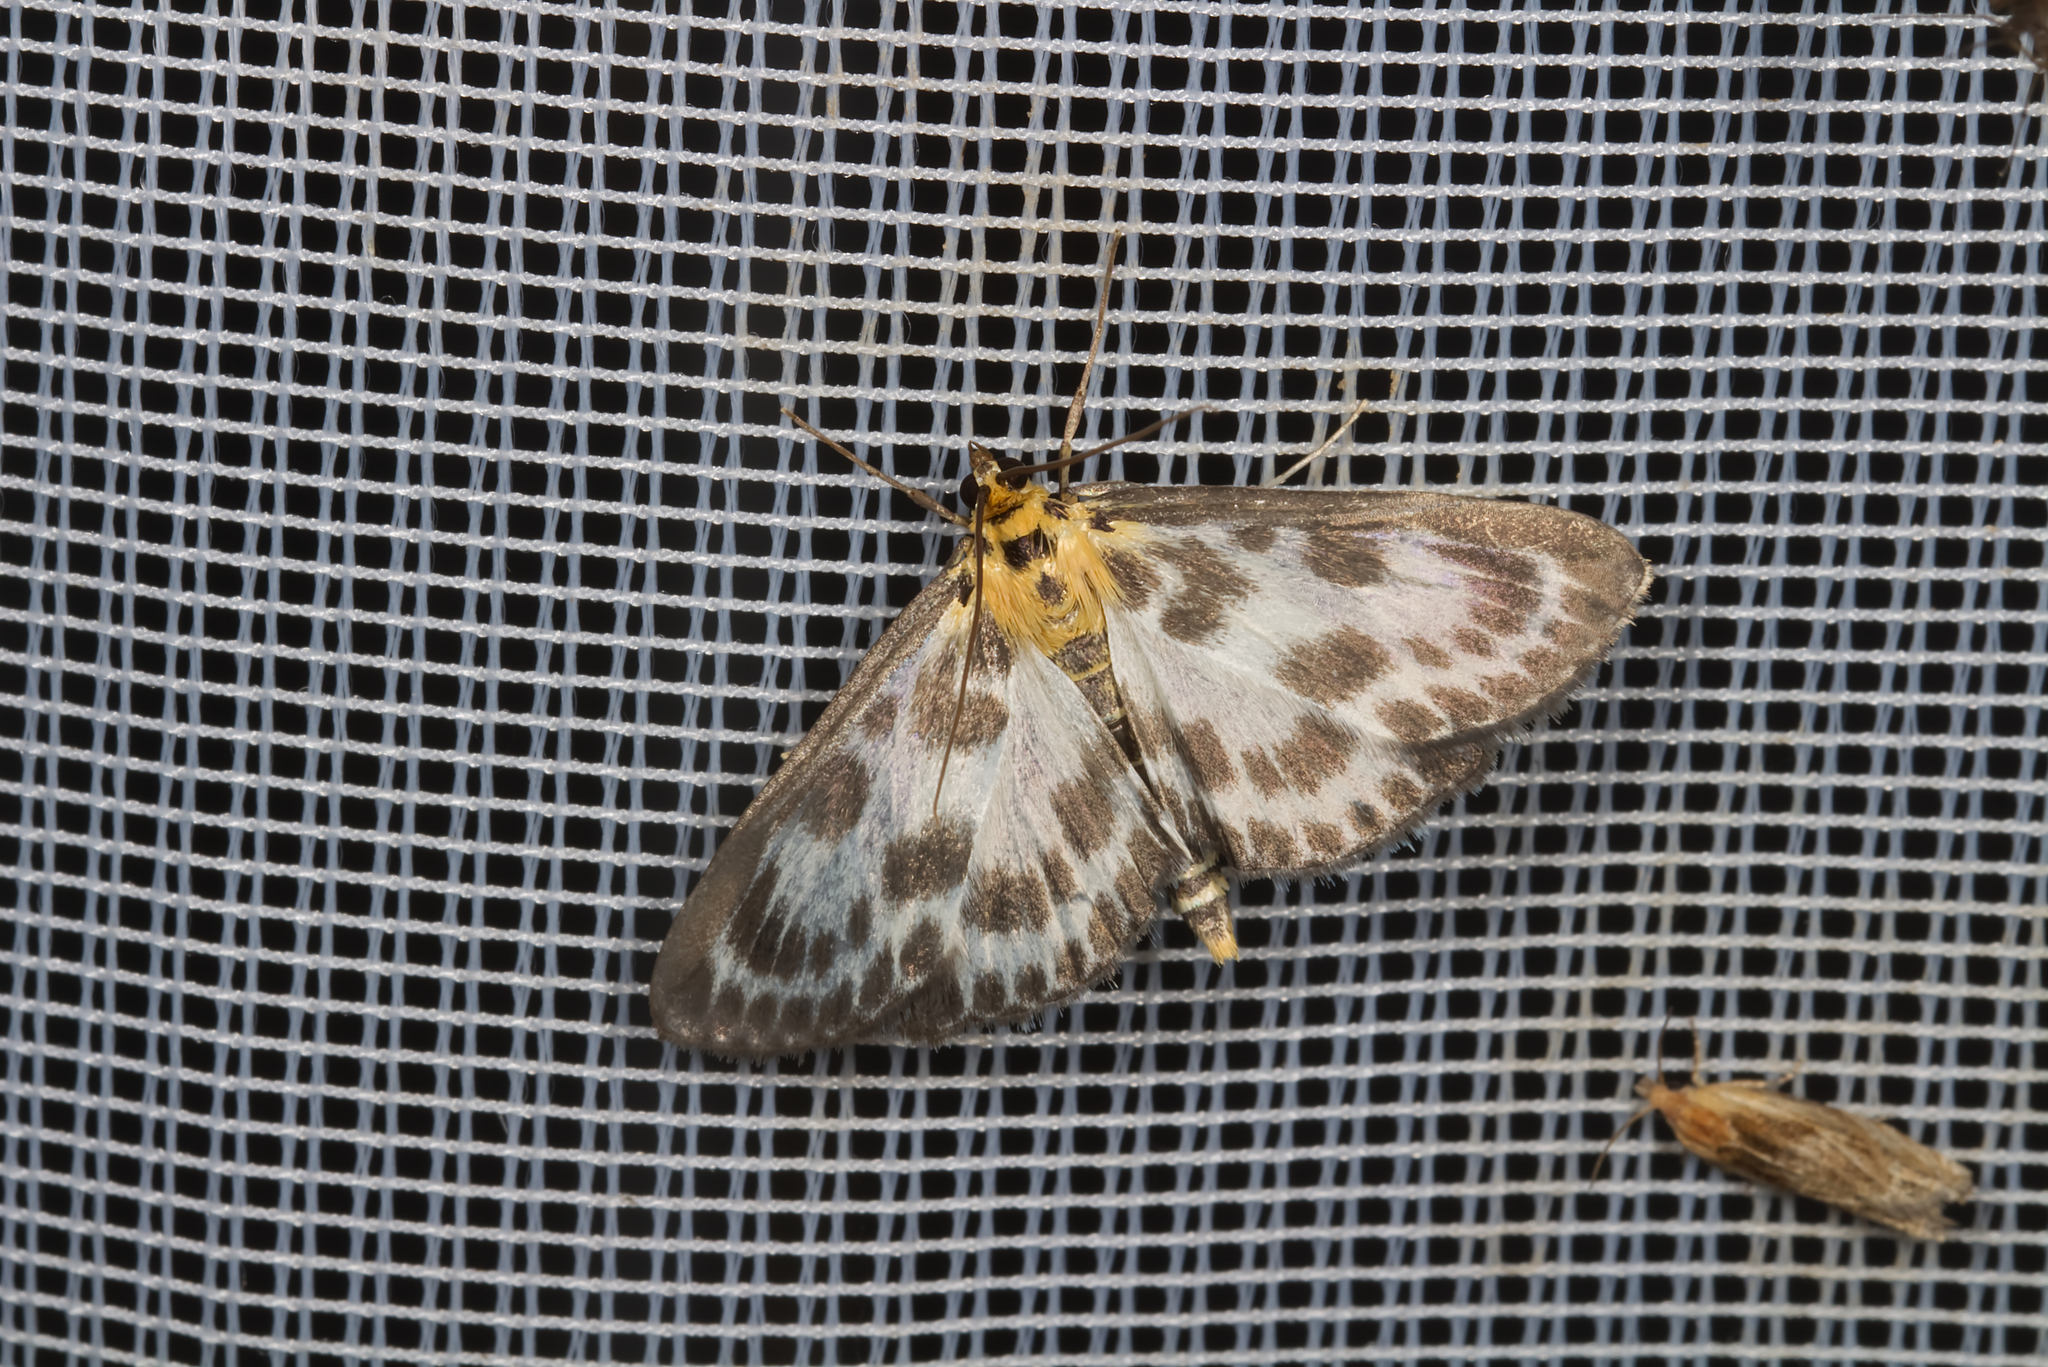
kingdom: Animalia
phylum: Arthropoda
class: Insecta
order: Lepidoptera
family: Crambidae
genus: Anania
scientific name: Anania hortulata
